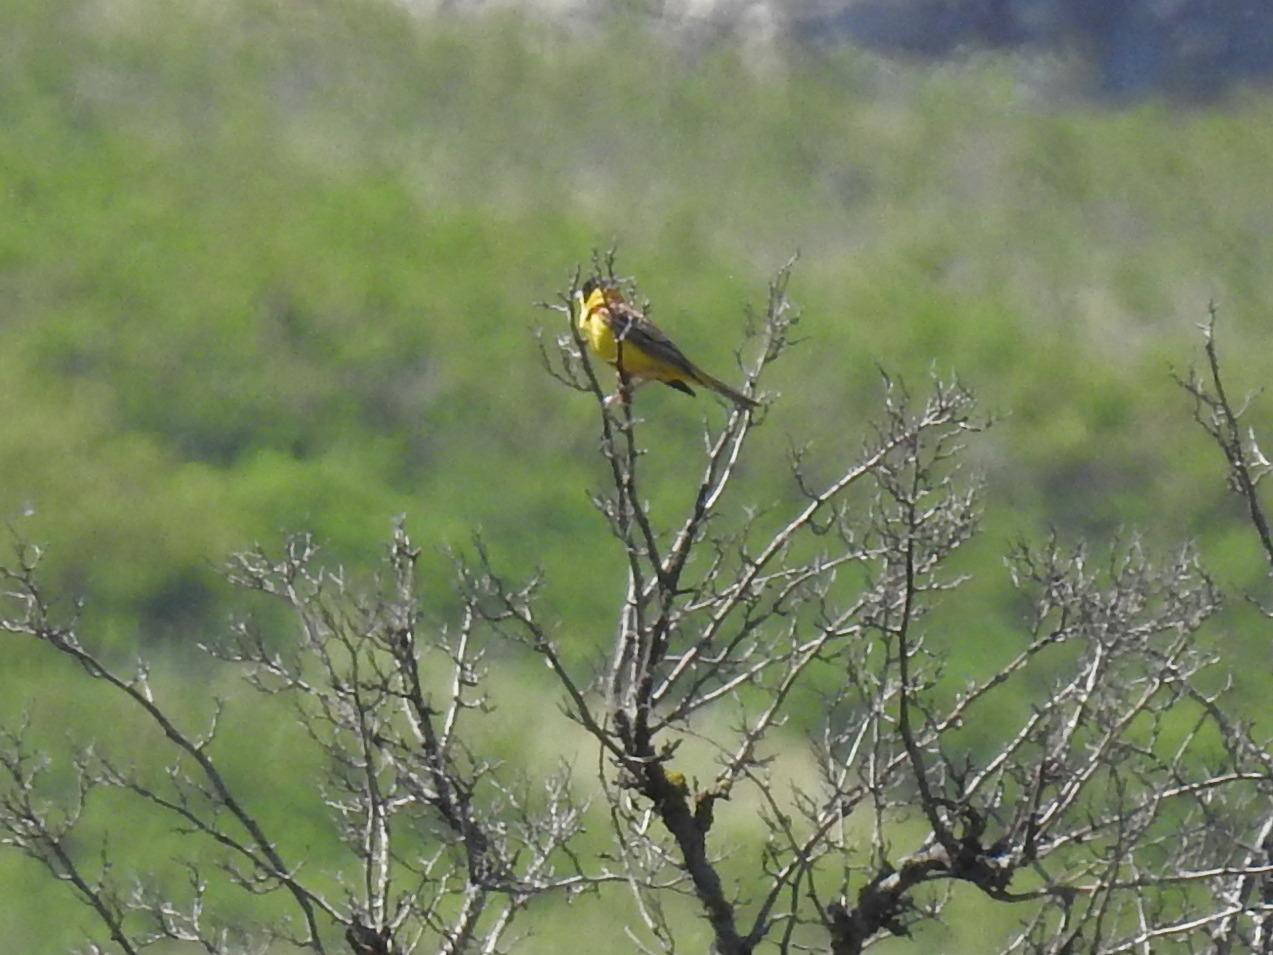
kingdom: Animalia
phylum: Chordata
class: Aves
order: Passeriformes
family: Emberizidae
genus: Emberiza
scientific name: Emberiza melanocephala
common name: Black-headed bunting
